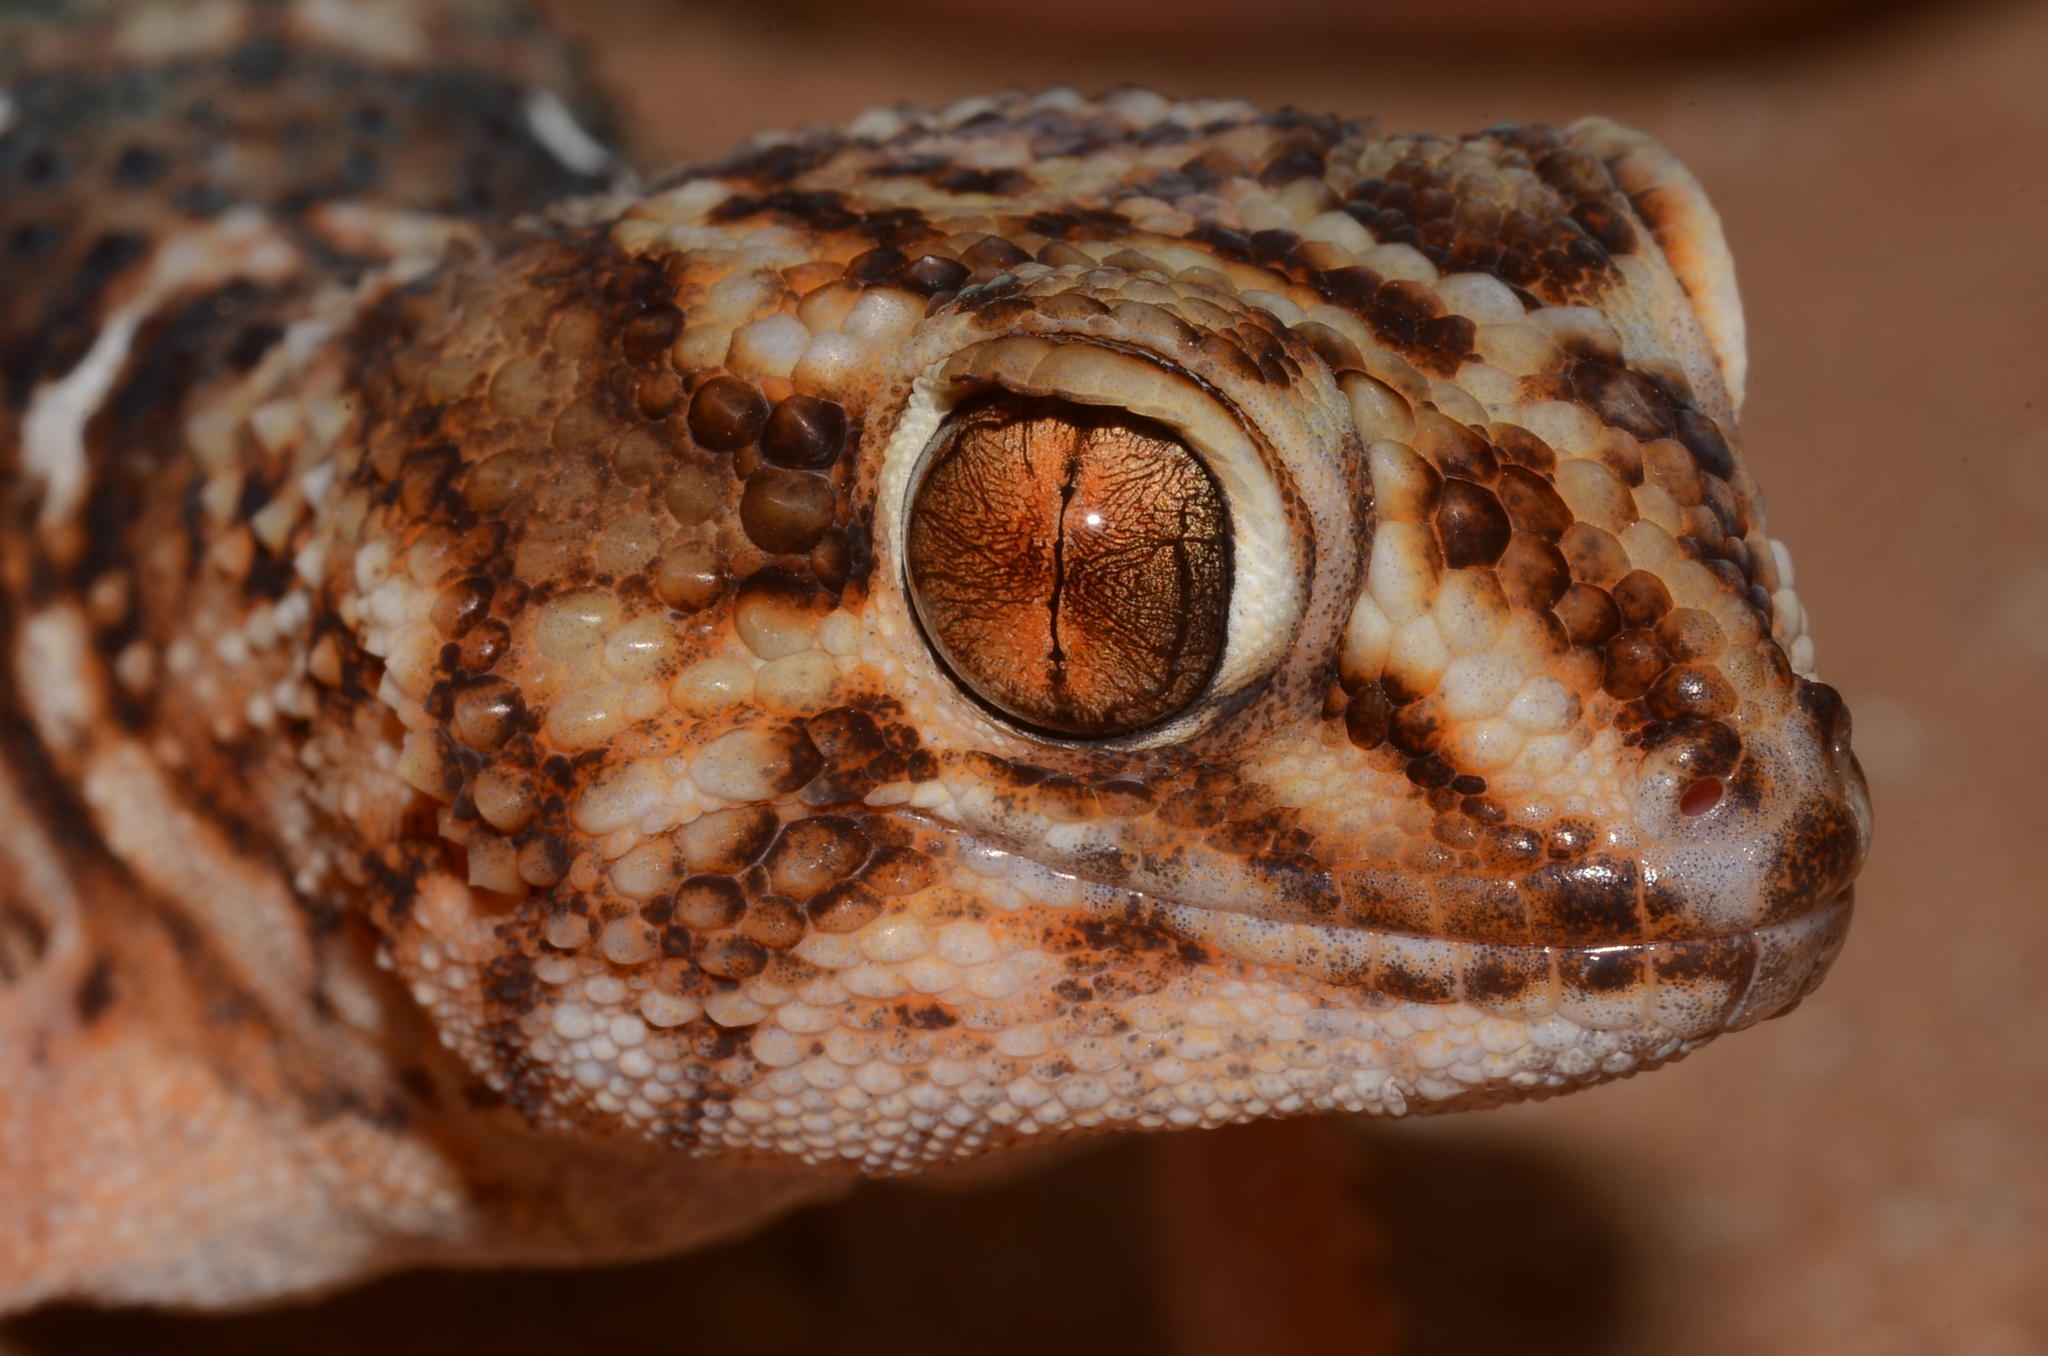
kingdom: Animalia
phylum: Chordata
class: Squamata
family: Gekkonidae
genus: Chondrodactylus
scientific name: Chondrodactylus angulifer
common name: Common giant ground gecko
